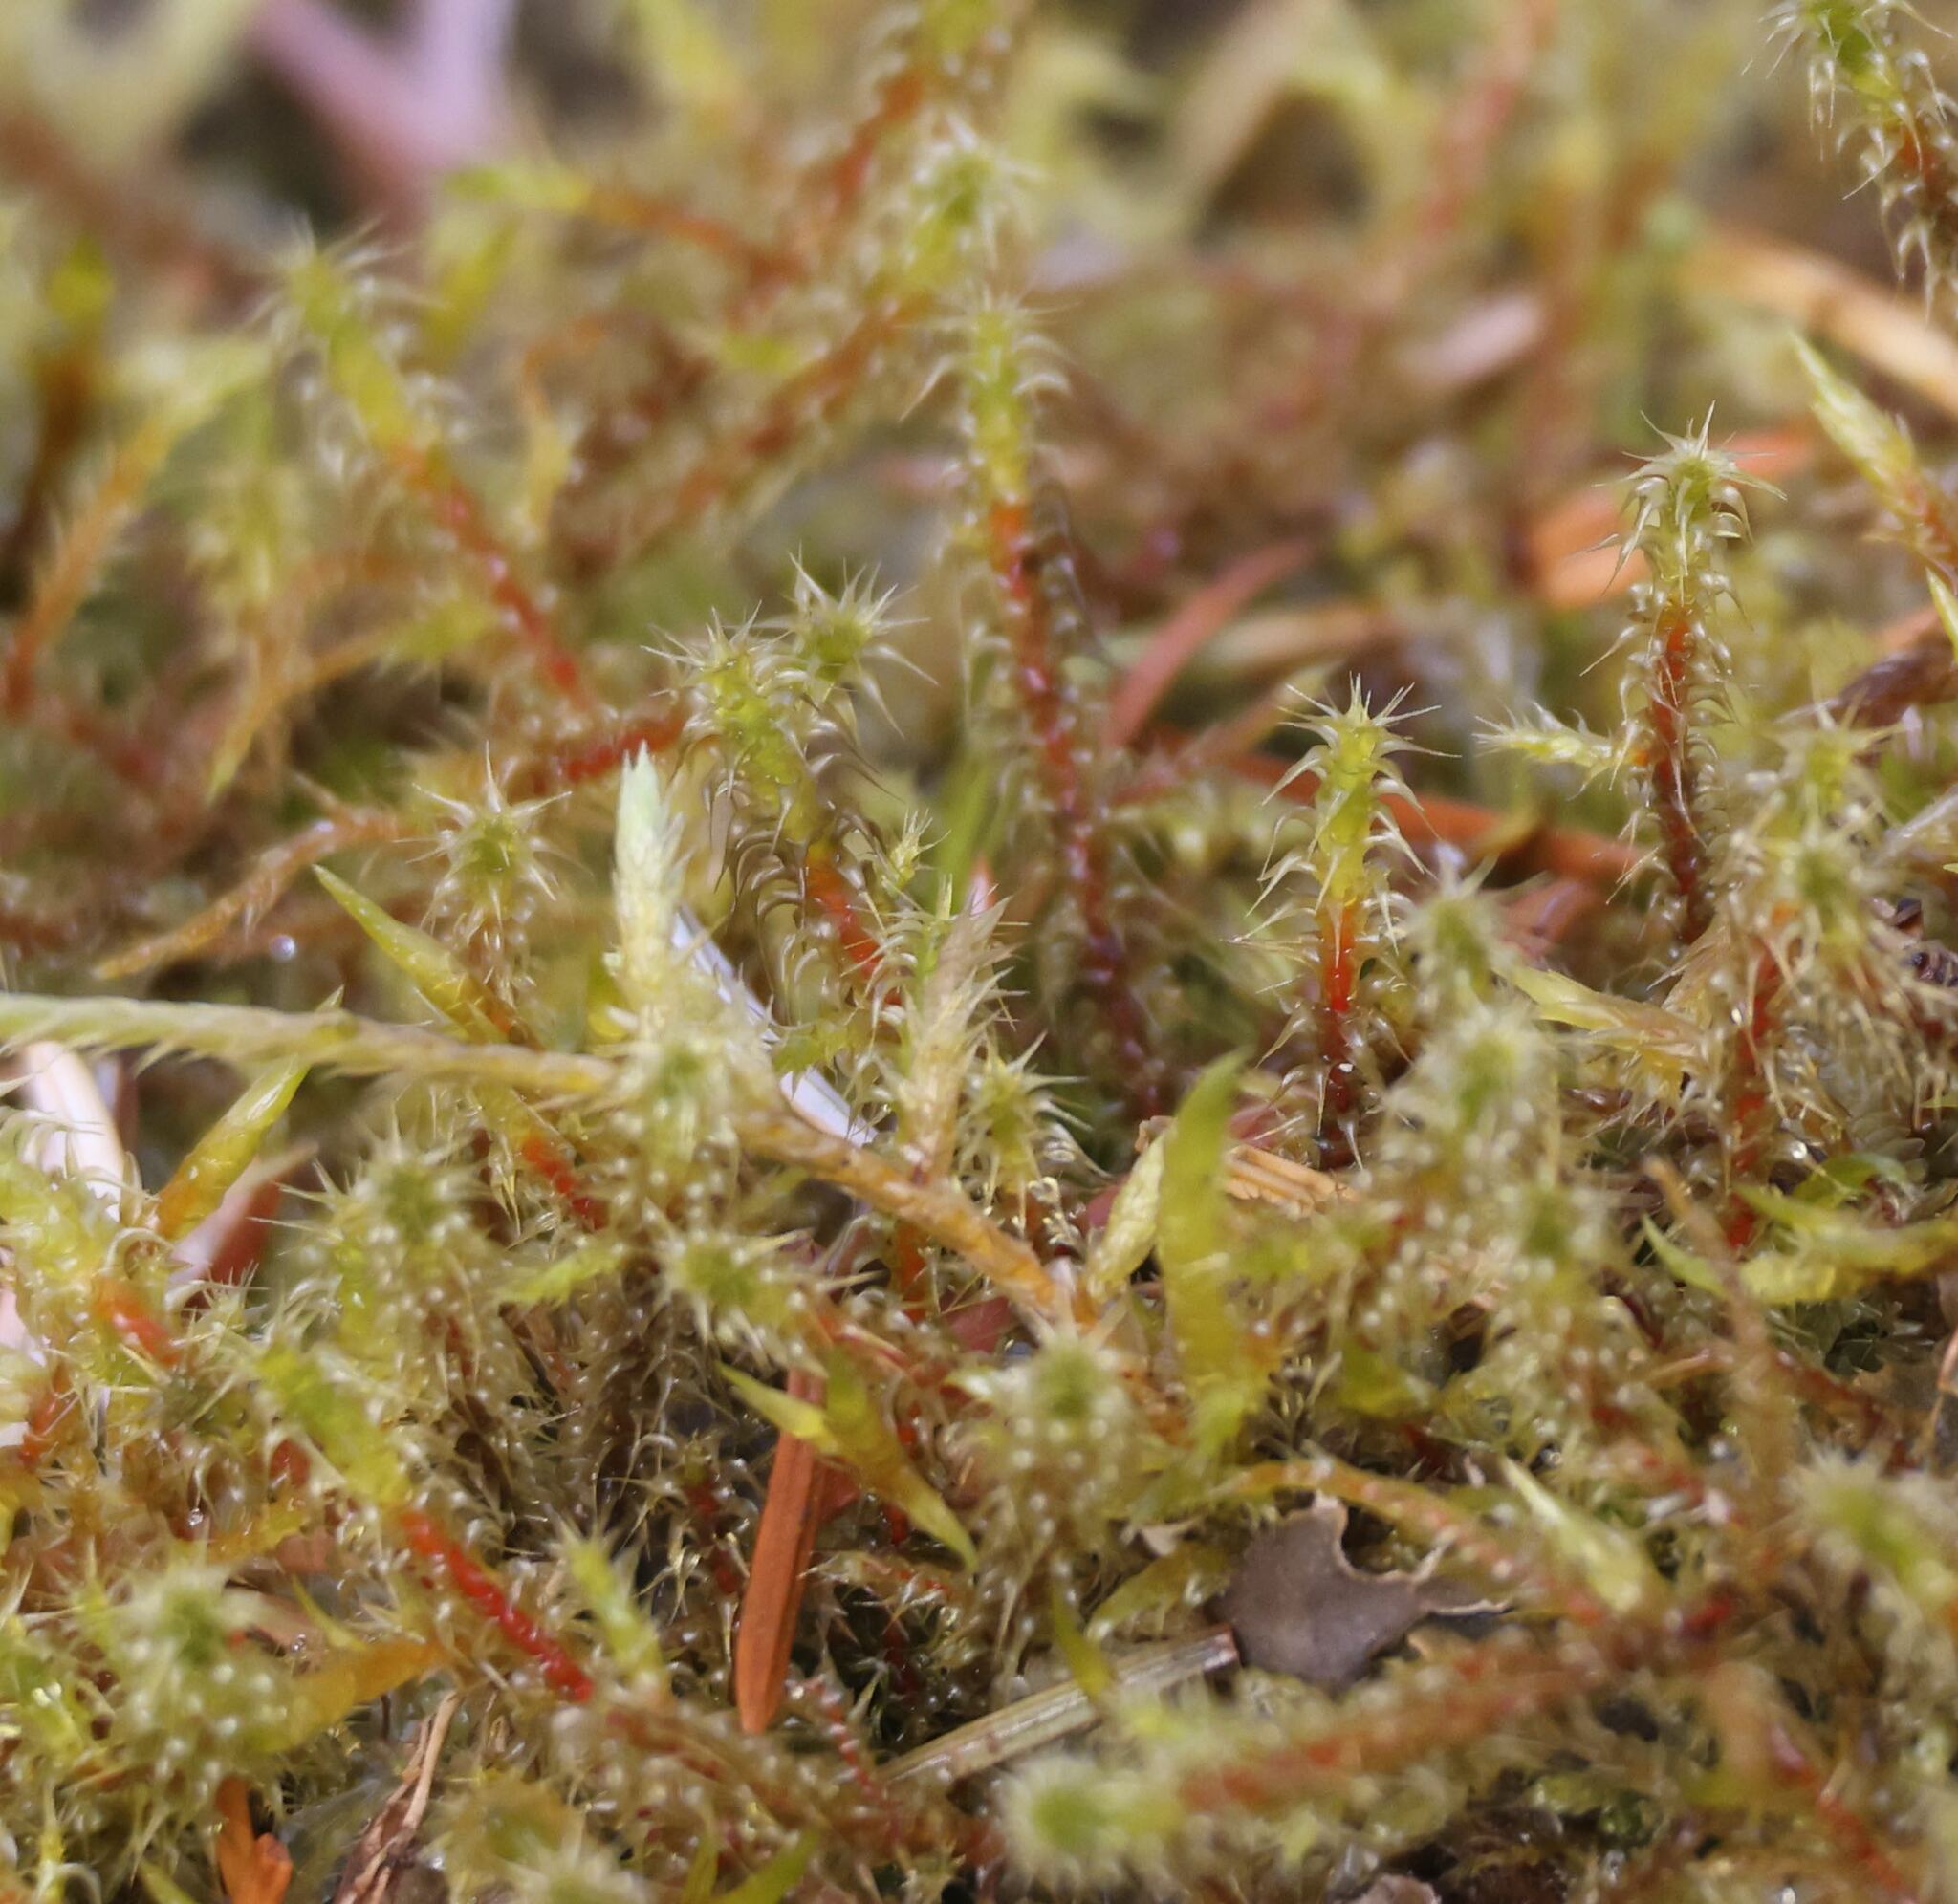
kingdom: Plantae
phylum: Bryophyta
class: Bryopsida
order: Hypnales
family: Hylocomiaceae
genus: Rhytidiadelphus
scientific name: Rhytidiadelphus squarrosus
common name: Springy turf-moss
